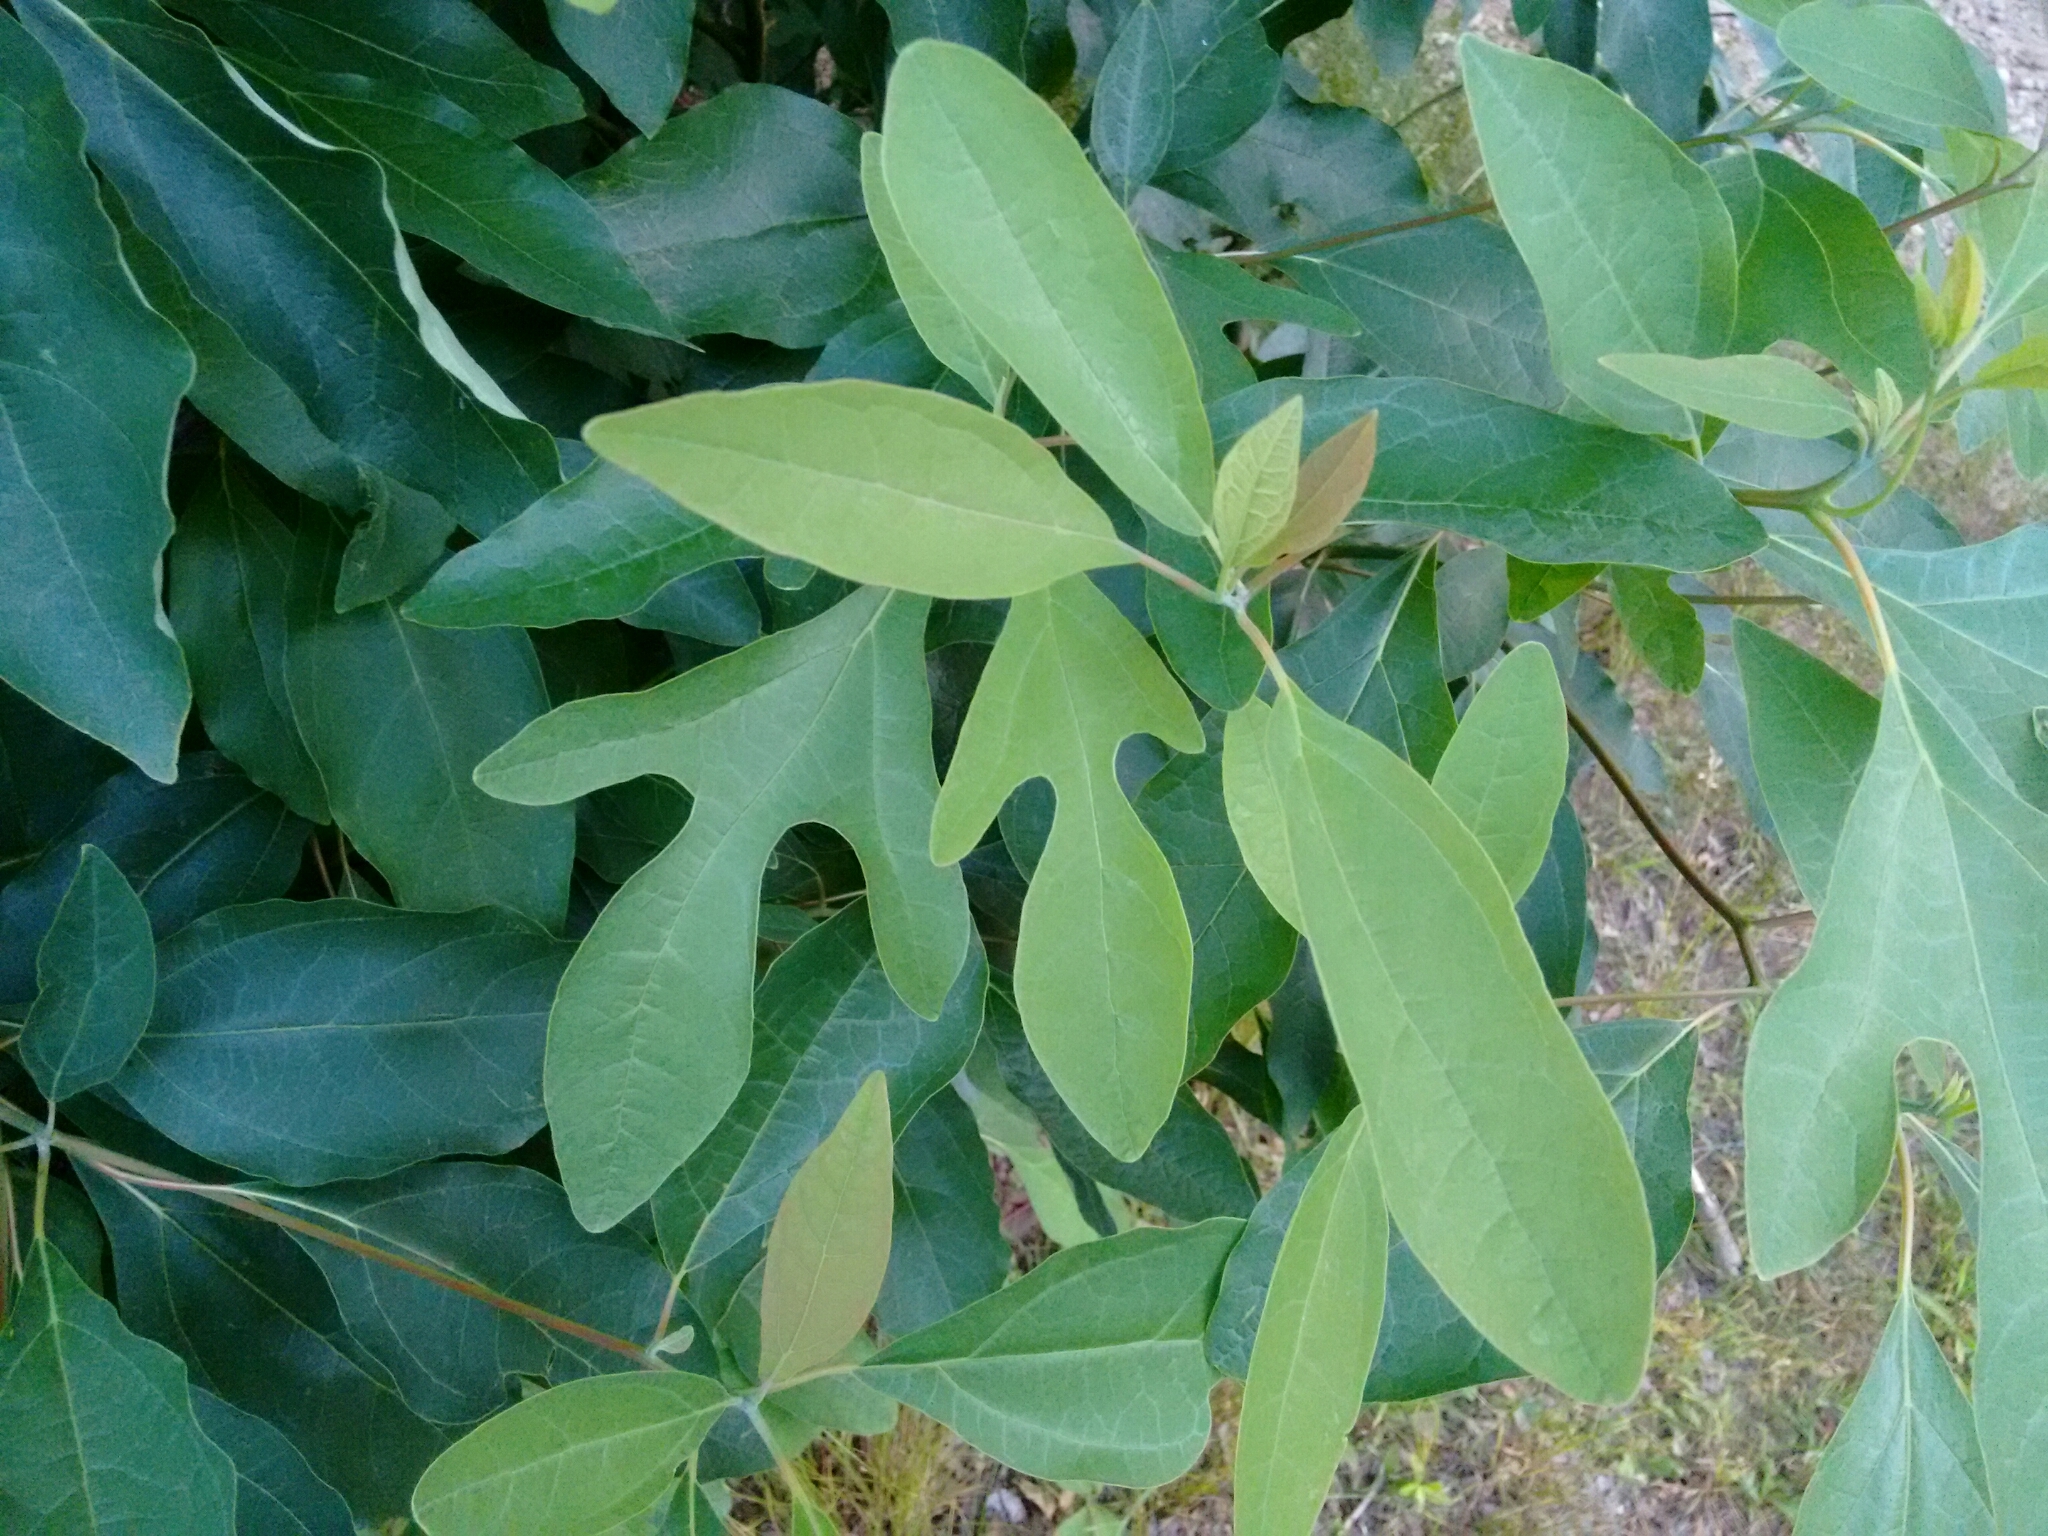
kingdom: Plantae
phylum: Tracheophyta
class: Magnoliopsida
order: Laurales
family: Lauraceae
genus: Sassafras
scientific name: Sassafras albidum
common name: Sassafras
